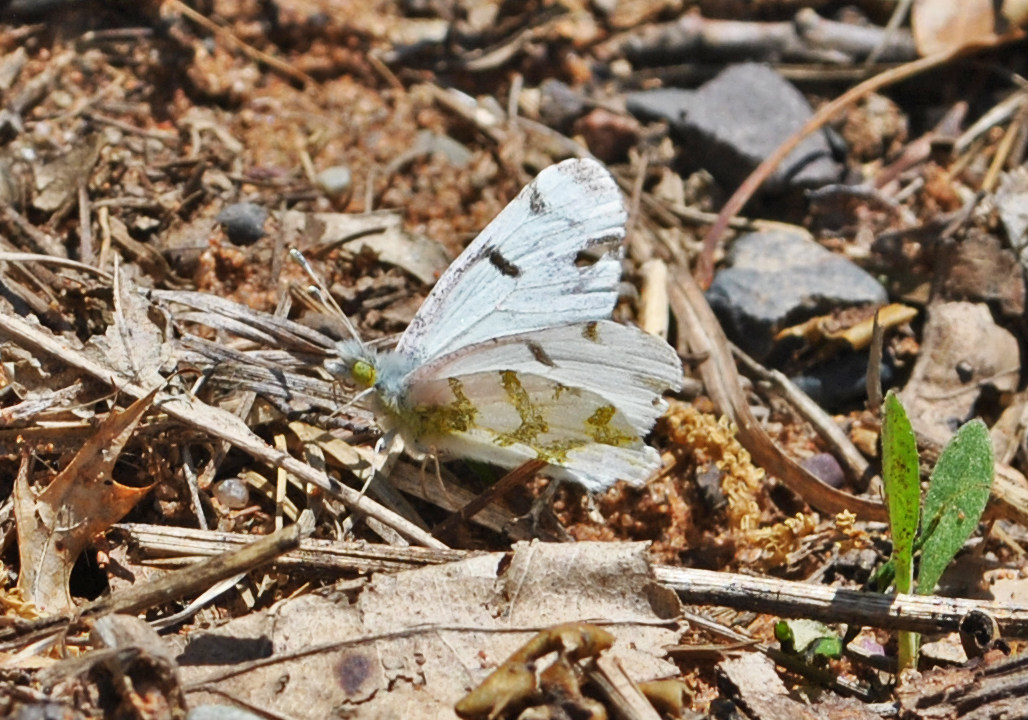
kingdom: Animalia
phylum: Arthropoda
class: Insecta
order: Lepidoptera
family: Pieridae
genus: Euchloe
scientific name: Euchloe olympia
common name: Olympia
